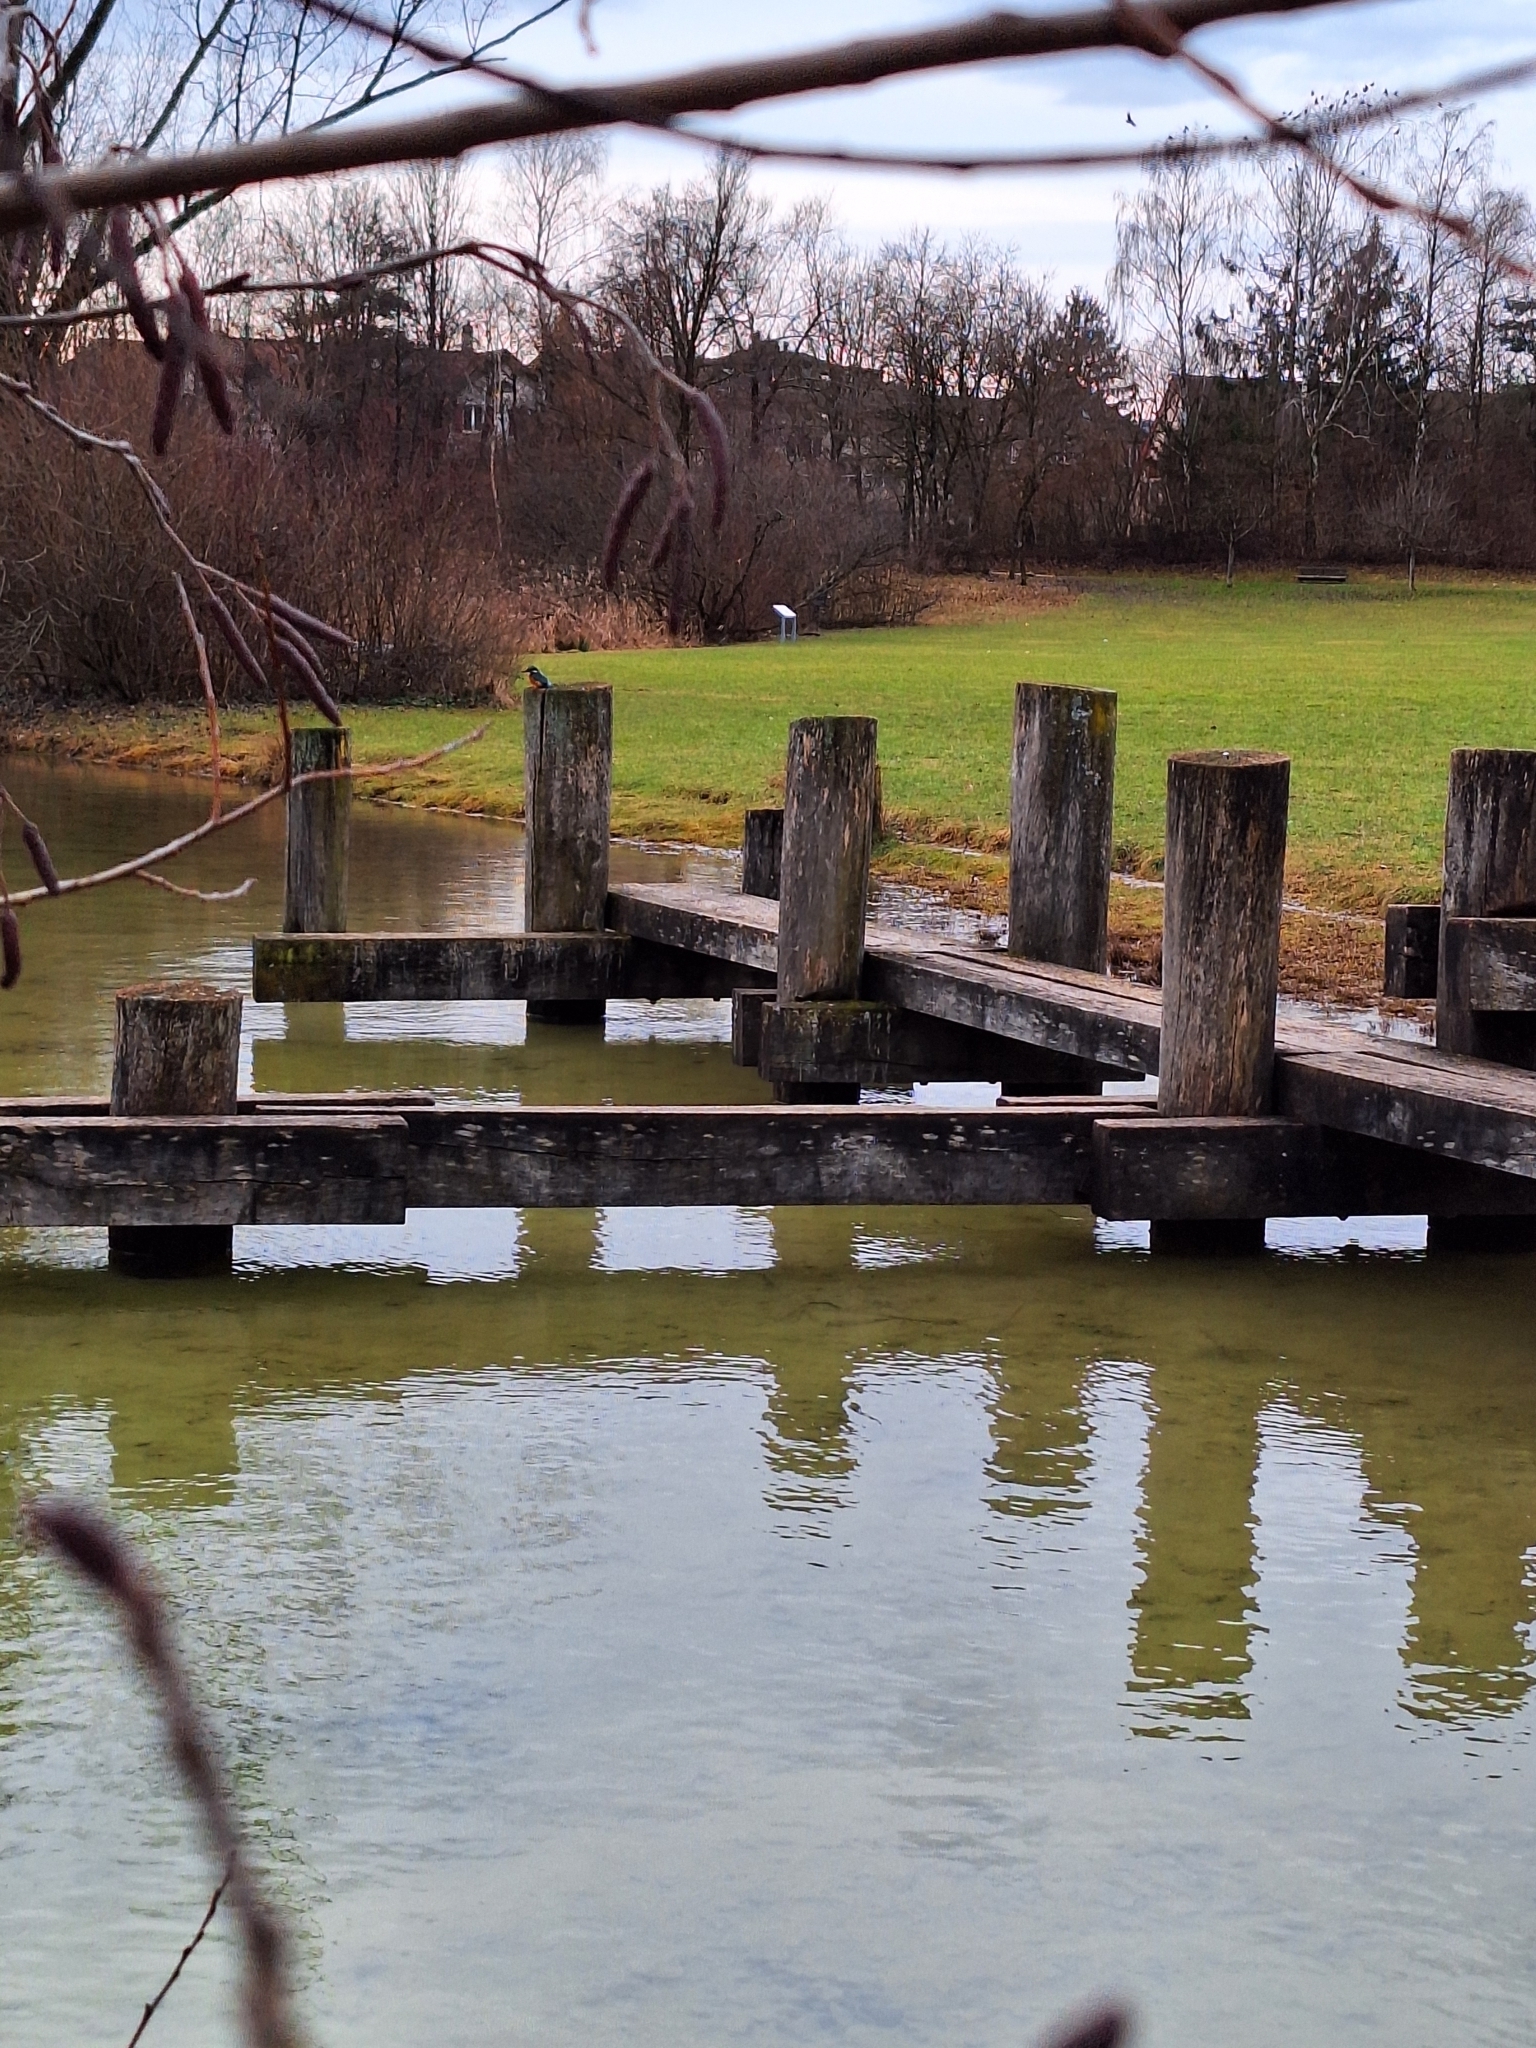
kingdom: Animalia
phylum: Chordata
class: Aves
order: Coraciiformes
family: Alcedinidae
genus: Alcedo
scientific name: Alcedo atthis
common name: Common kingfisher
